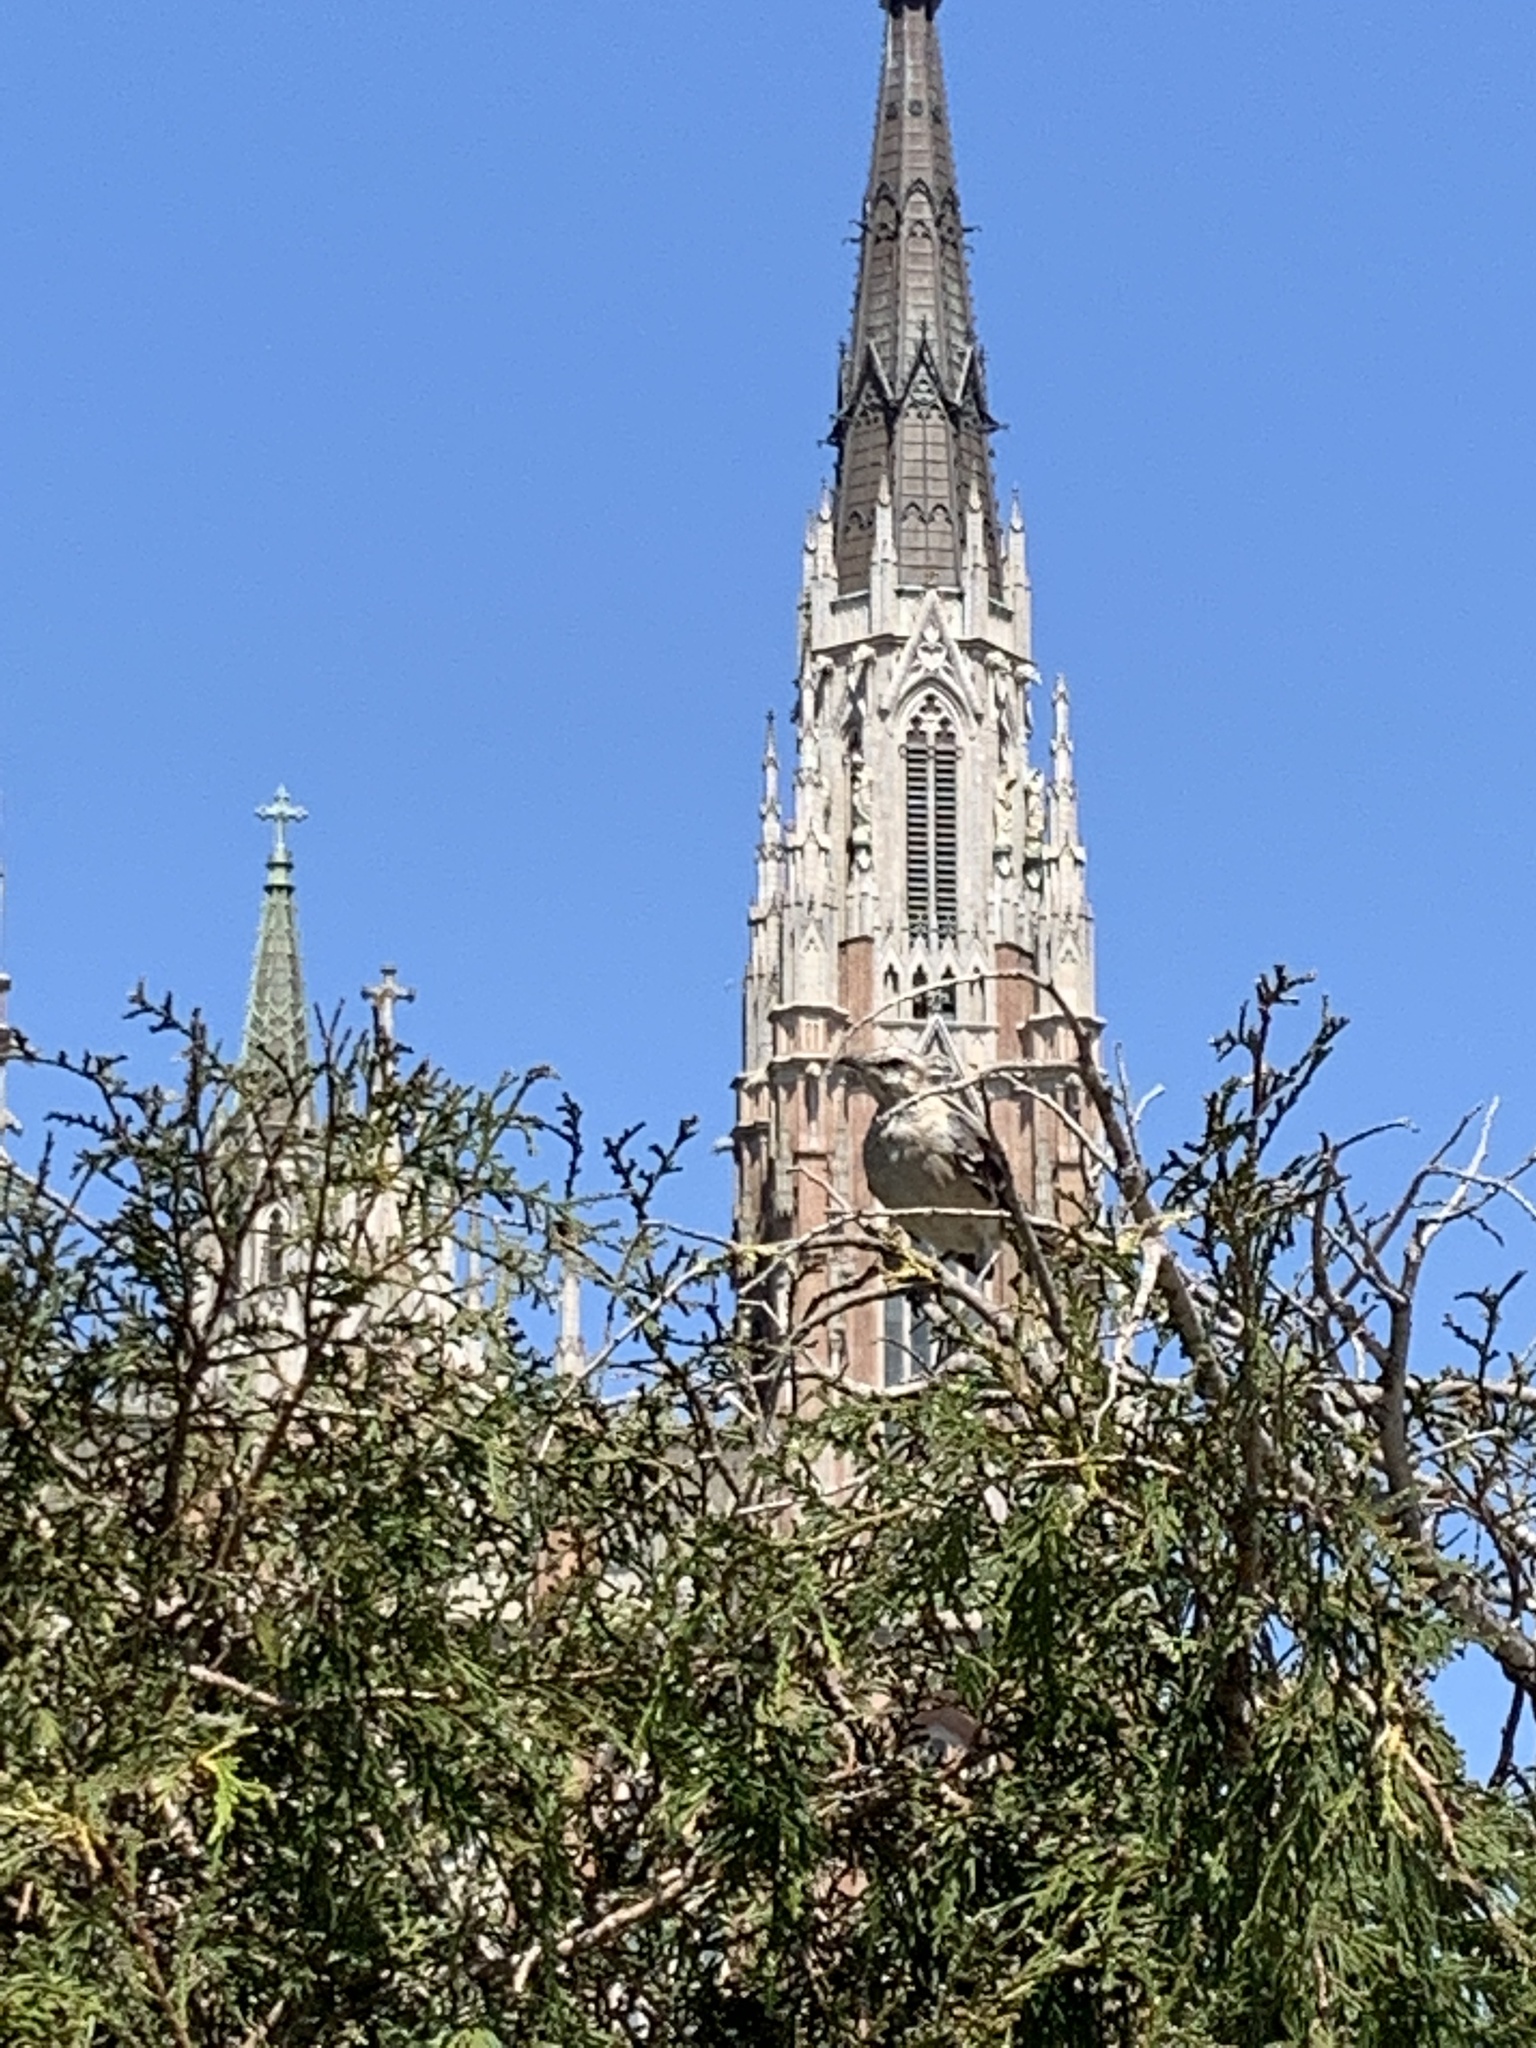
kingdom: Animalia
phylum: Chordata
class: Aves
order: Passeriformes
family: Mimidae
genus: Mimus
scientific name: Mimus saturninus
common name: Chalk-browed mockingbird
